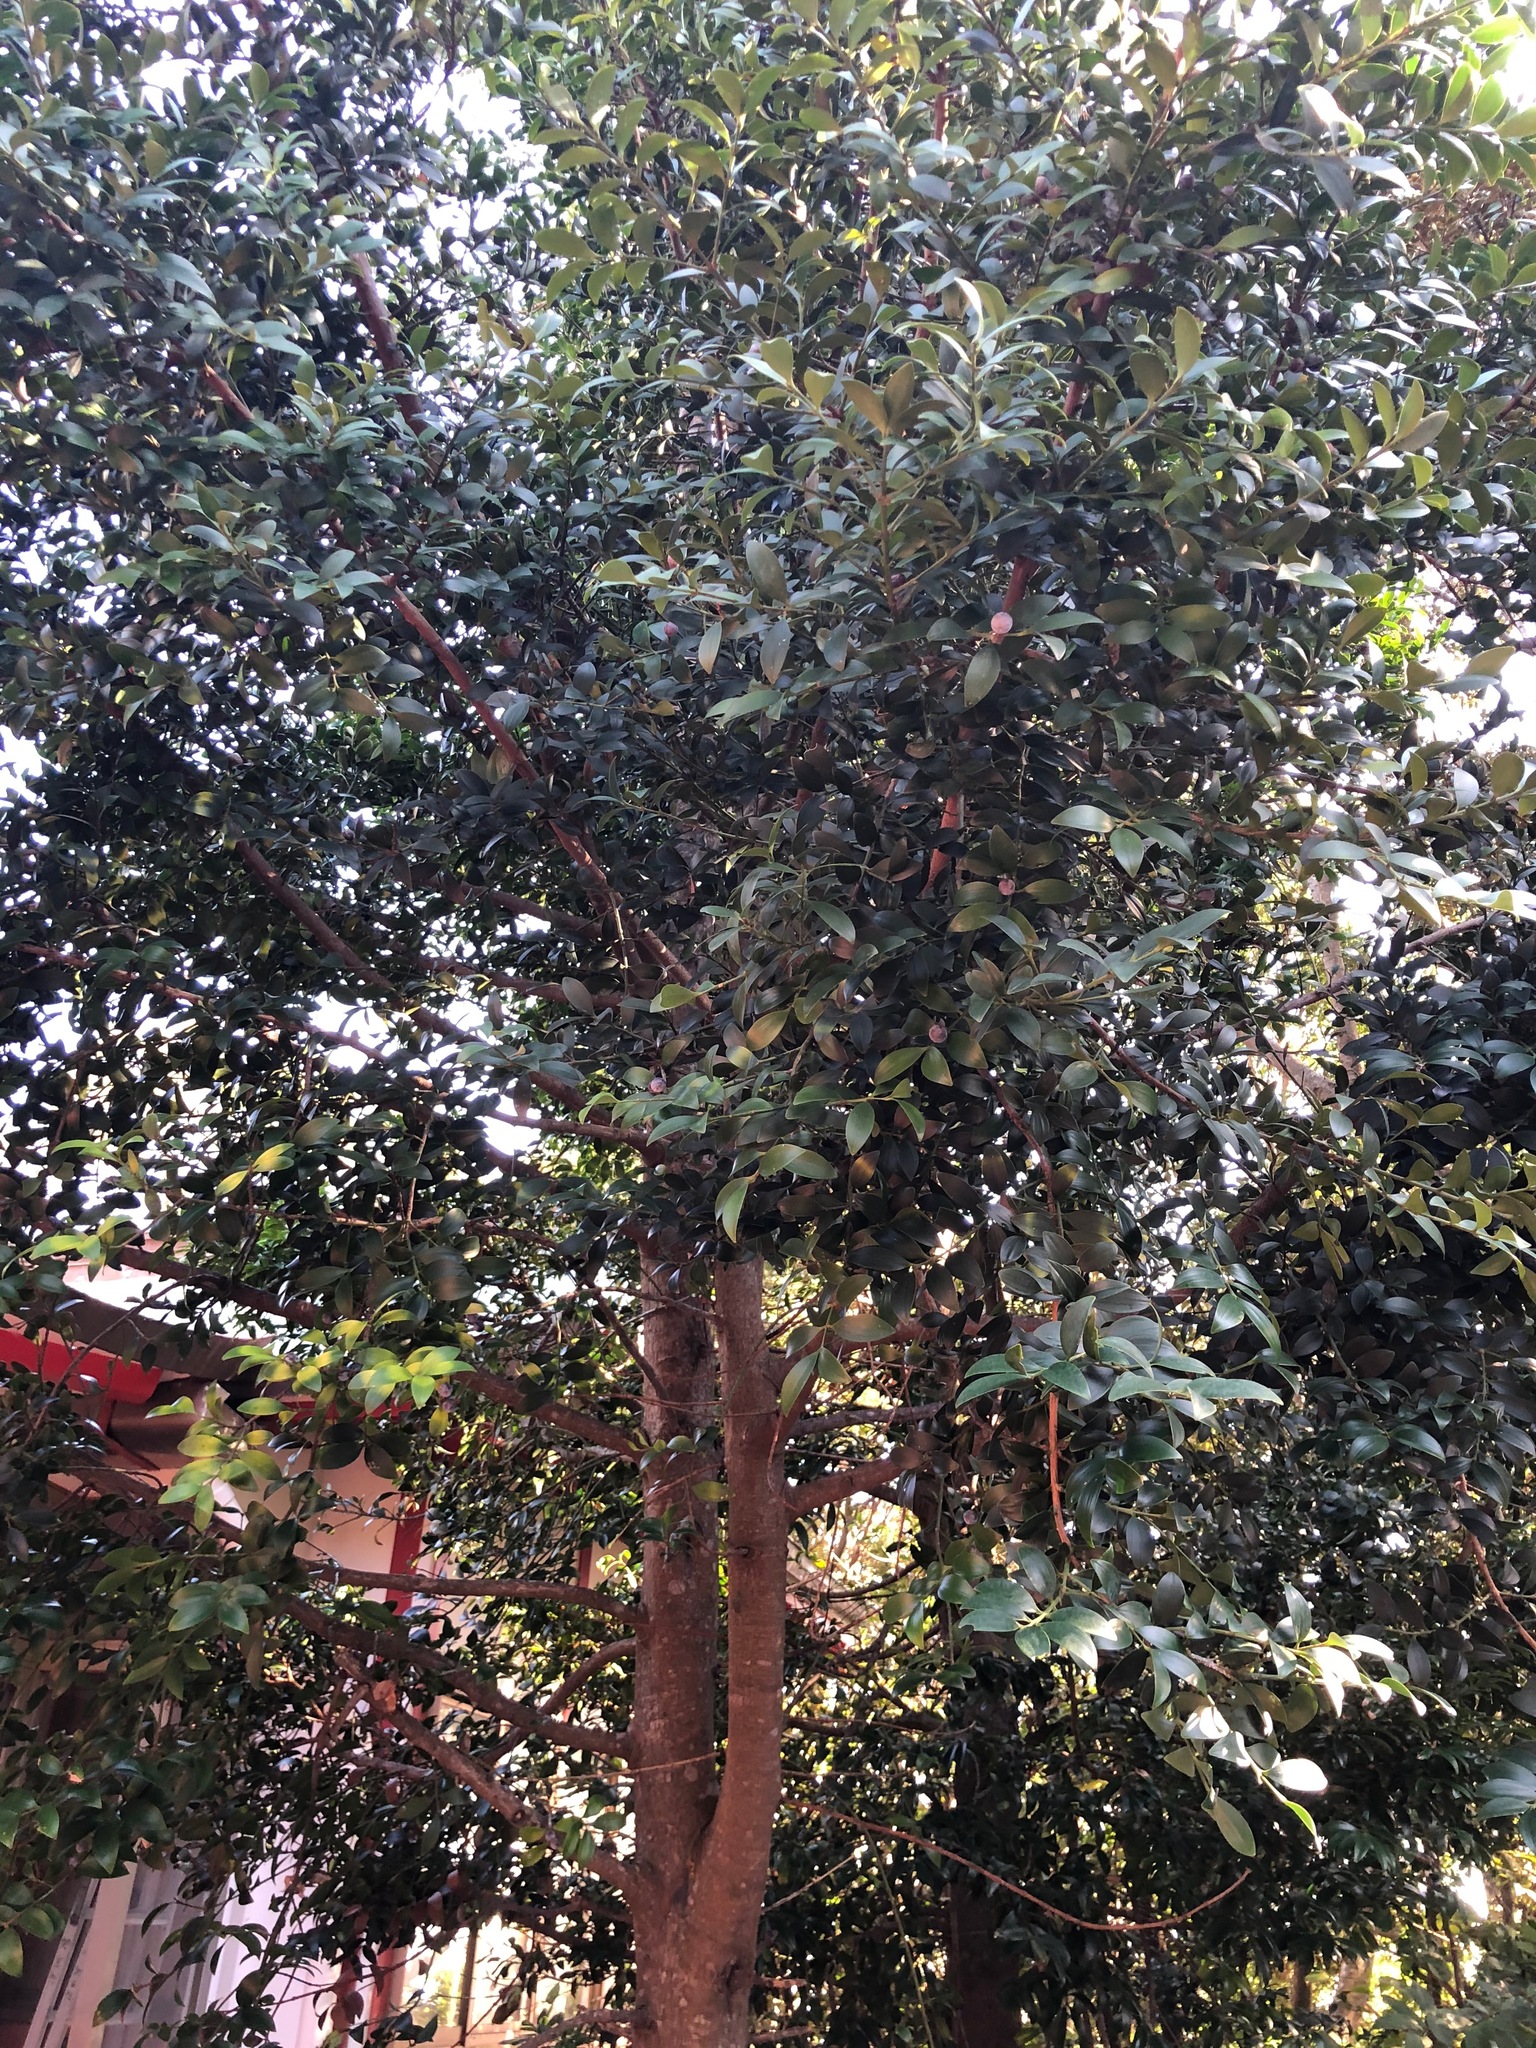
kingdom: Plantae
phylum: Tracheophyta
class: Pinopsida
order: Pinales
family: Podocarpaceae
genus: Nageia
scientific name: Nageia nagi
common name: Kaphal
